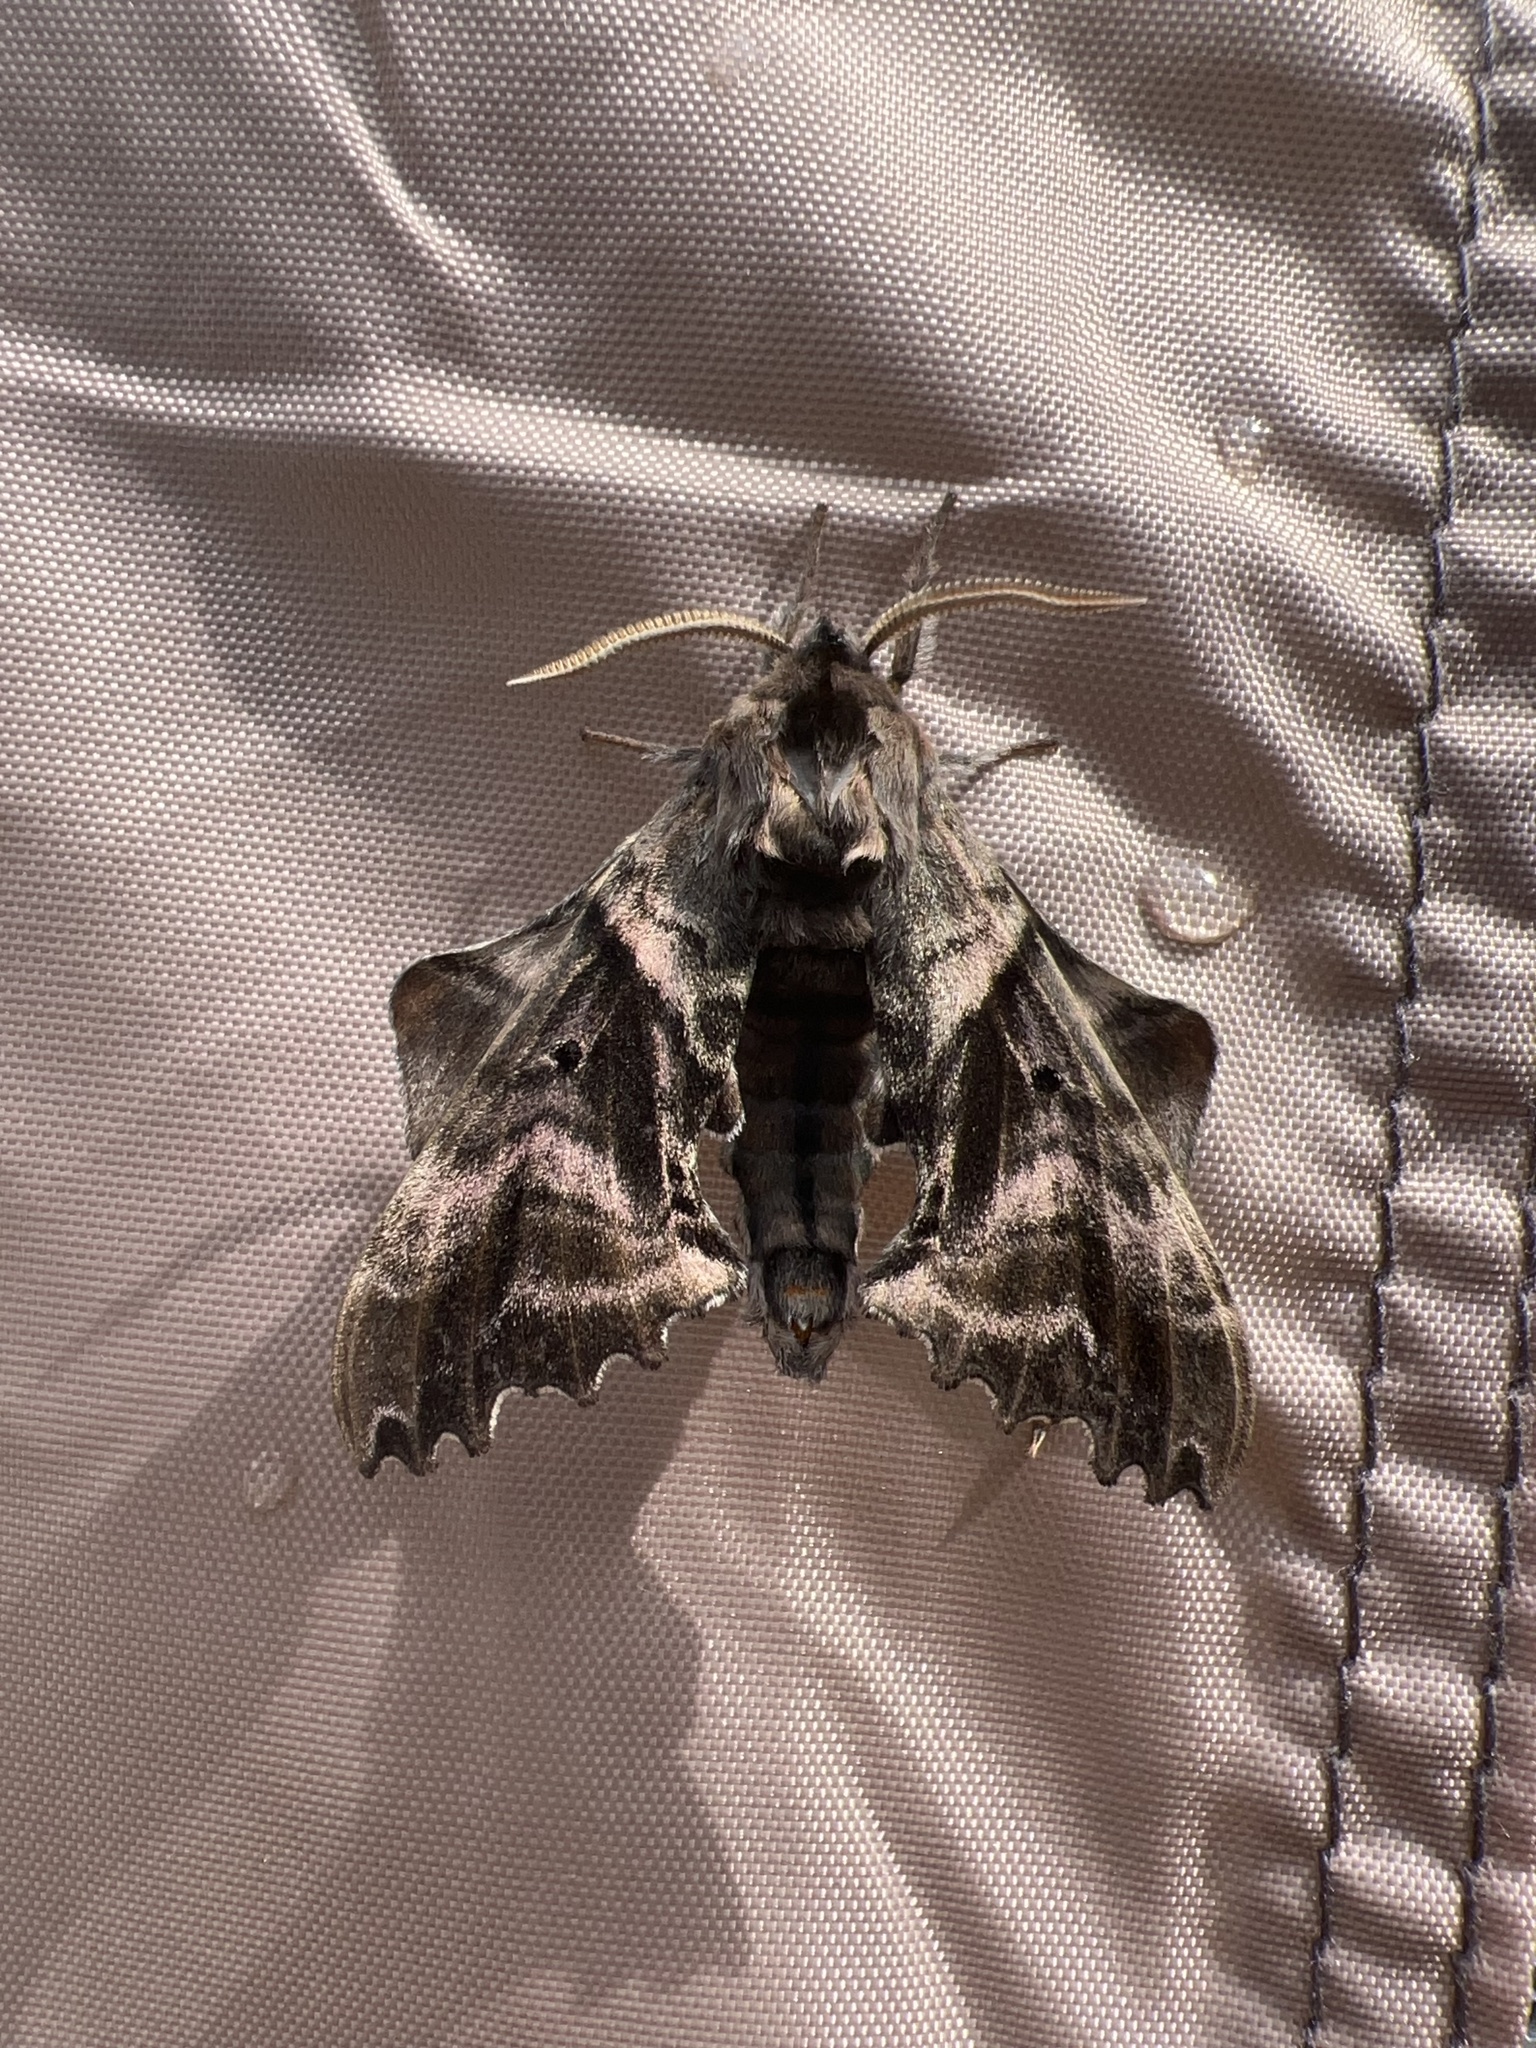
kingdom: Animalia
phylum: Arthropoda
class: Insecta
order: Lepidoptera
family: Sphingidae
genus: Paonias
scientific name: Paonias excaecata
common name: Blind-eyed sphinx
